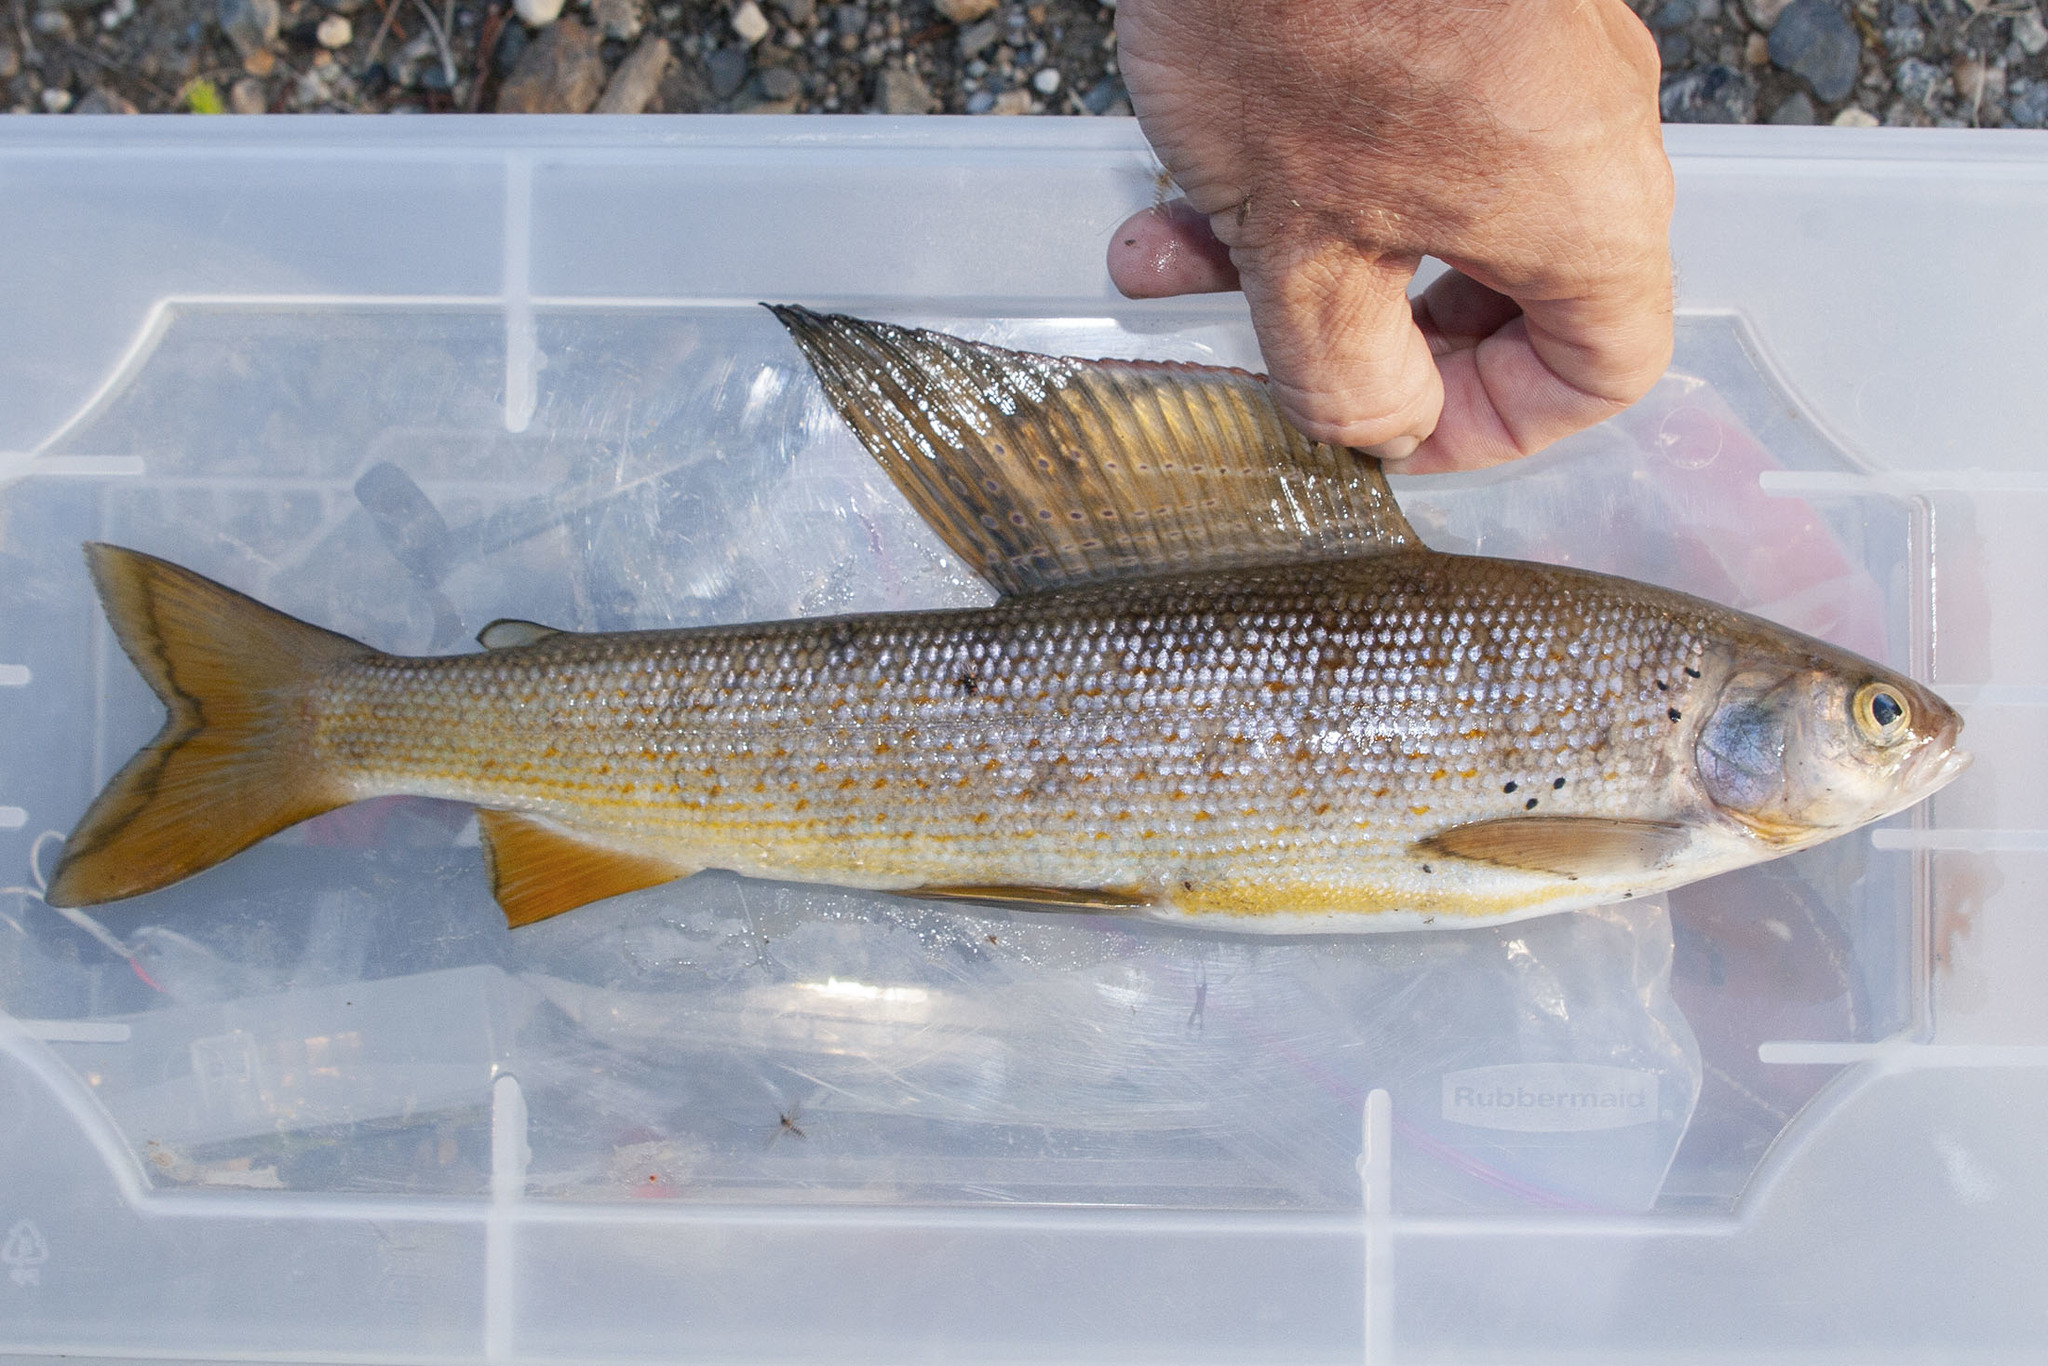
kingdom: Animalia
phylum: Chordata
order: Salmoniformes
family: Salmonidae
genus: Thymallus
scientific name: Thymallus arcticus
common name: Arctic grayling
